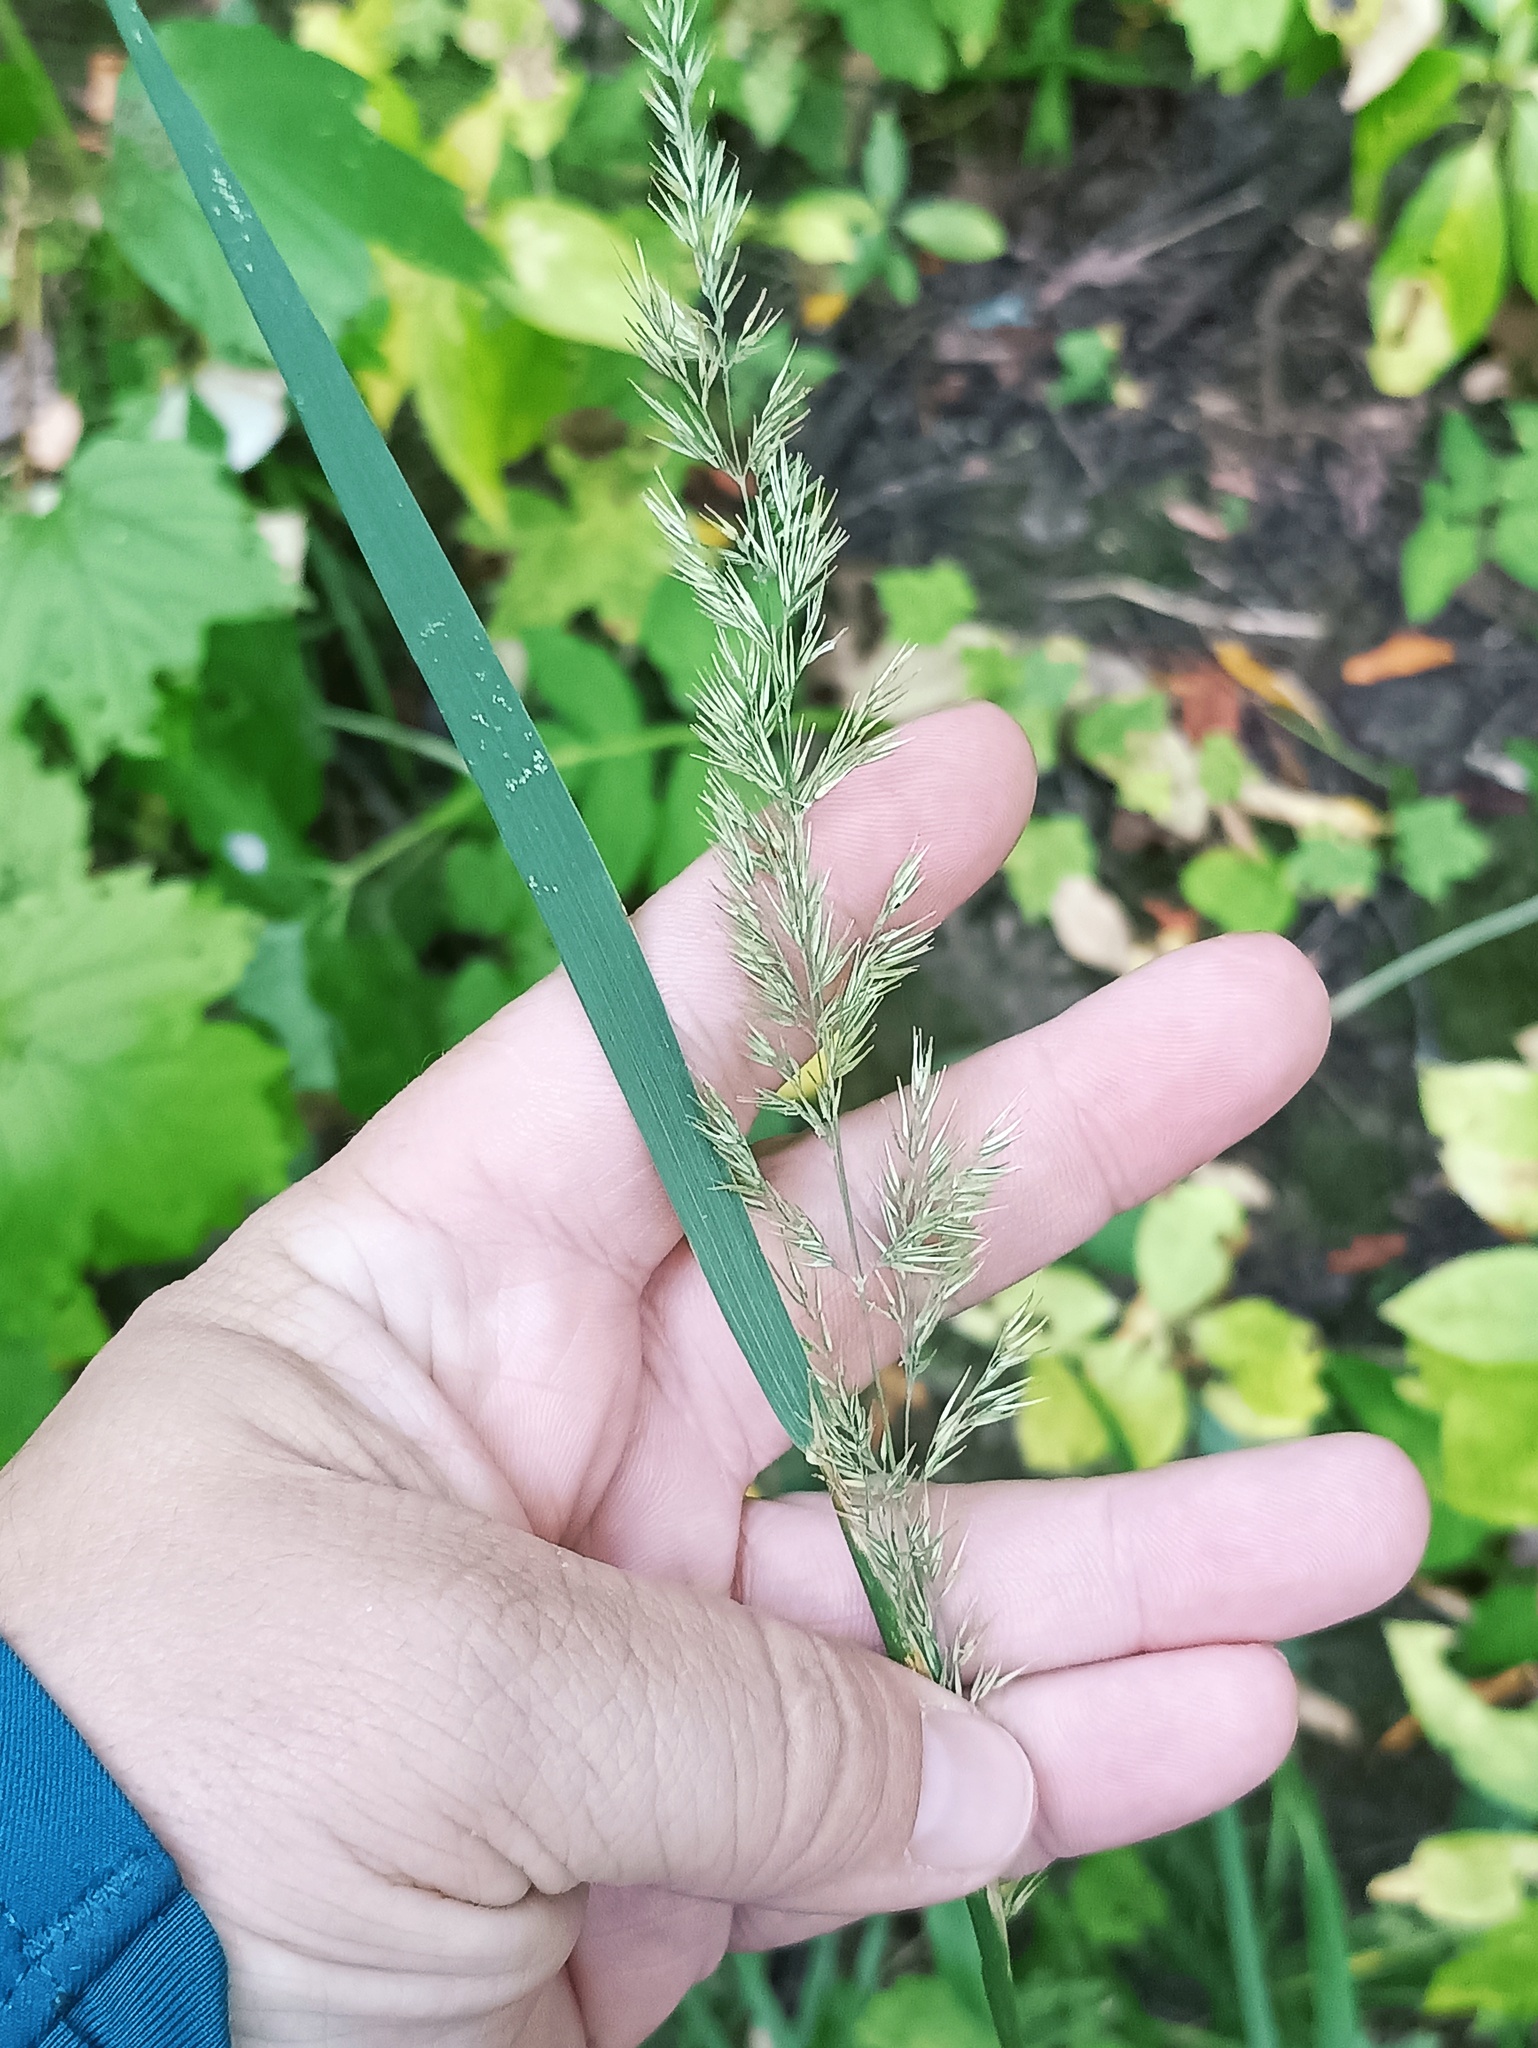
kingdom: Plantae
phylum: Tracheophyta
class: Liliopsida
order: Poales
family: Poaceae
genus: Calamagrostis
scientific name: Calamagrostis epigejos
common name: Wood small-reed
